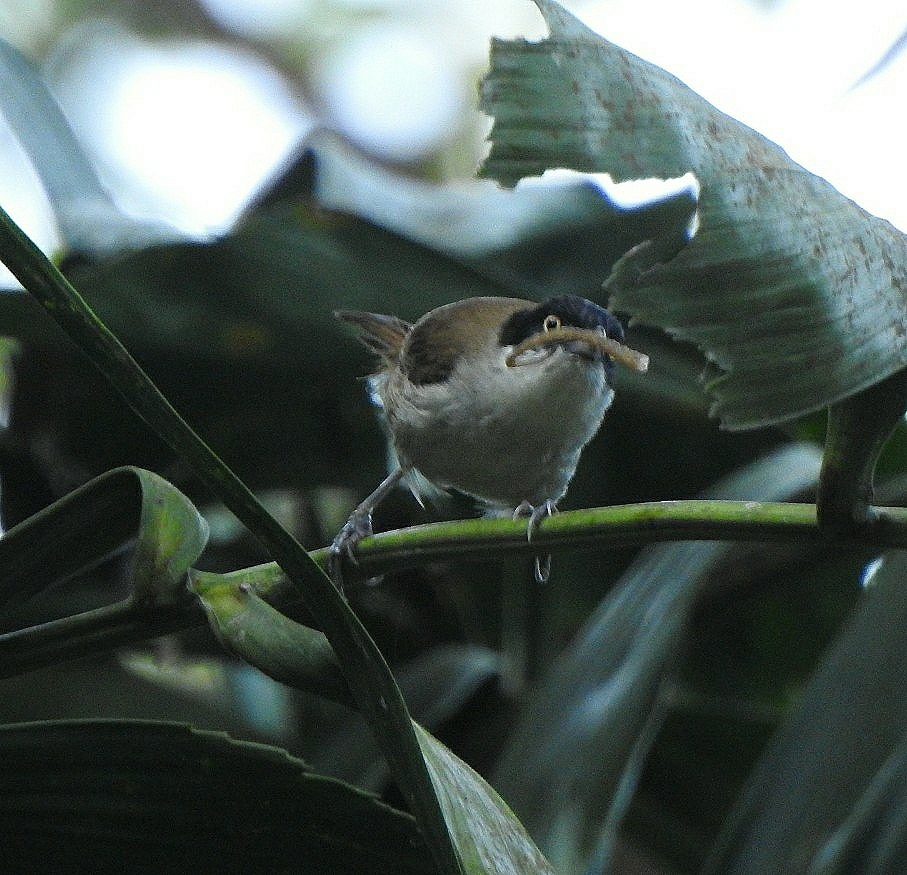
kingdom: Animalia
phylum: Chordata
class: Aves
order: Passeriformes
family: Timaliidae
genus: Rhopocichla
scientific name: Rhopocichla atriceps
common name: Dark-fronted babbler
